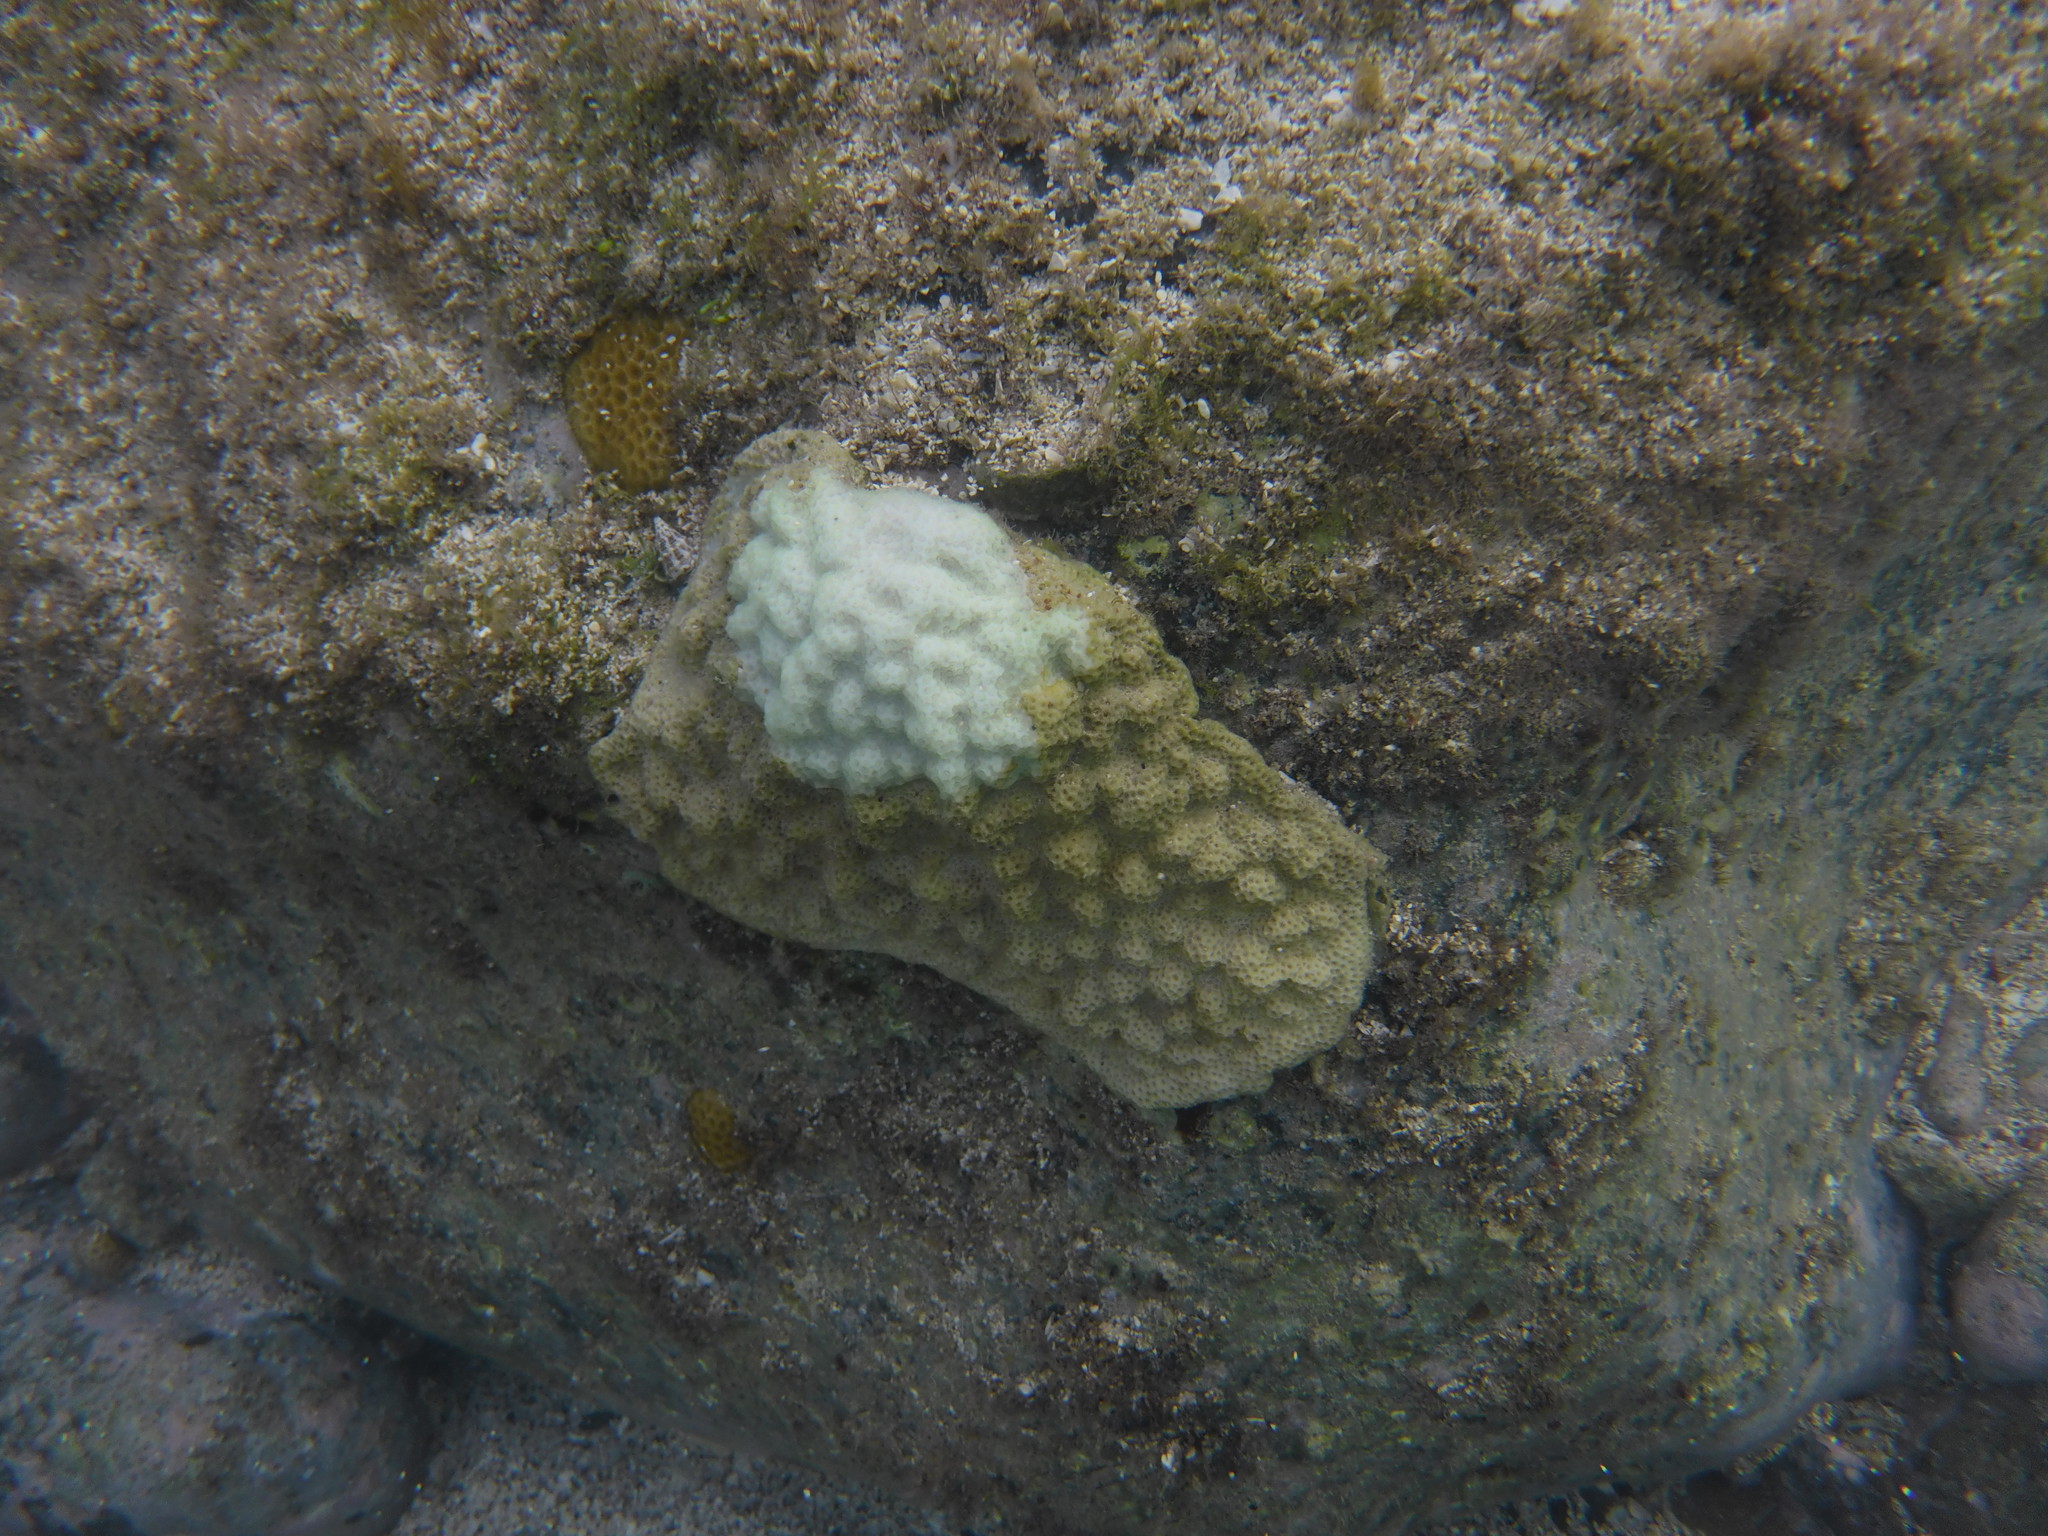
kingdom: Animalia
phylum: Cnidaria
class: Anthozoa
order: Scleractinia
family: Poritidae
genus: Porites
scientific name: Porites astreoides
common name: Mustard hill coral
